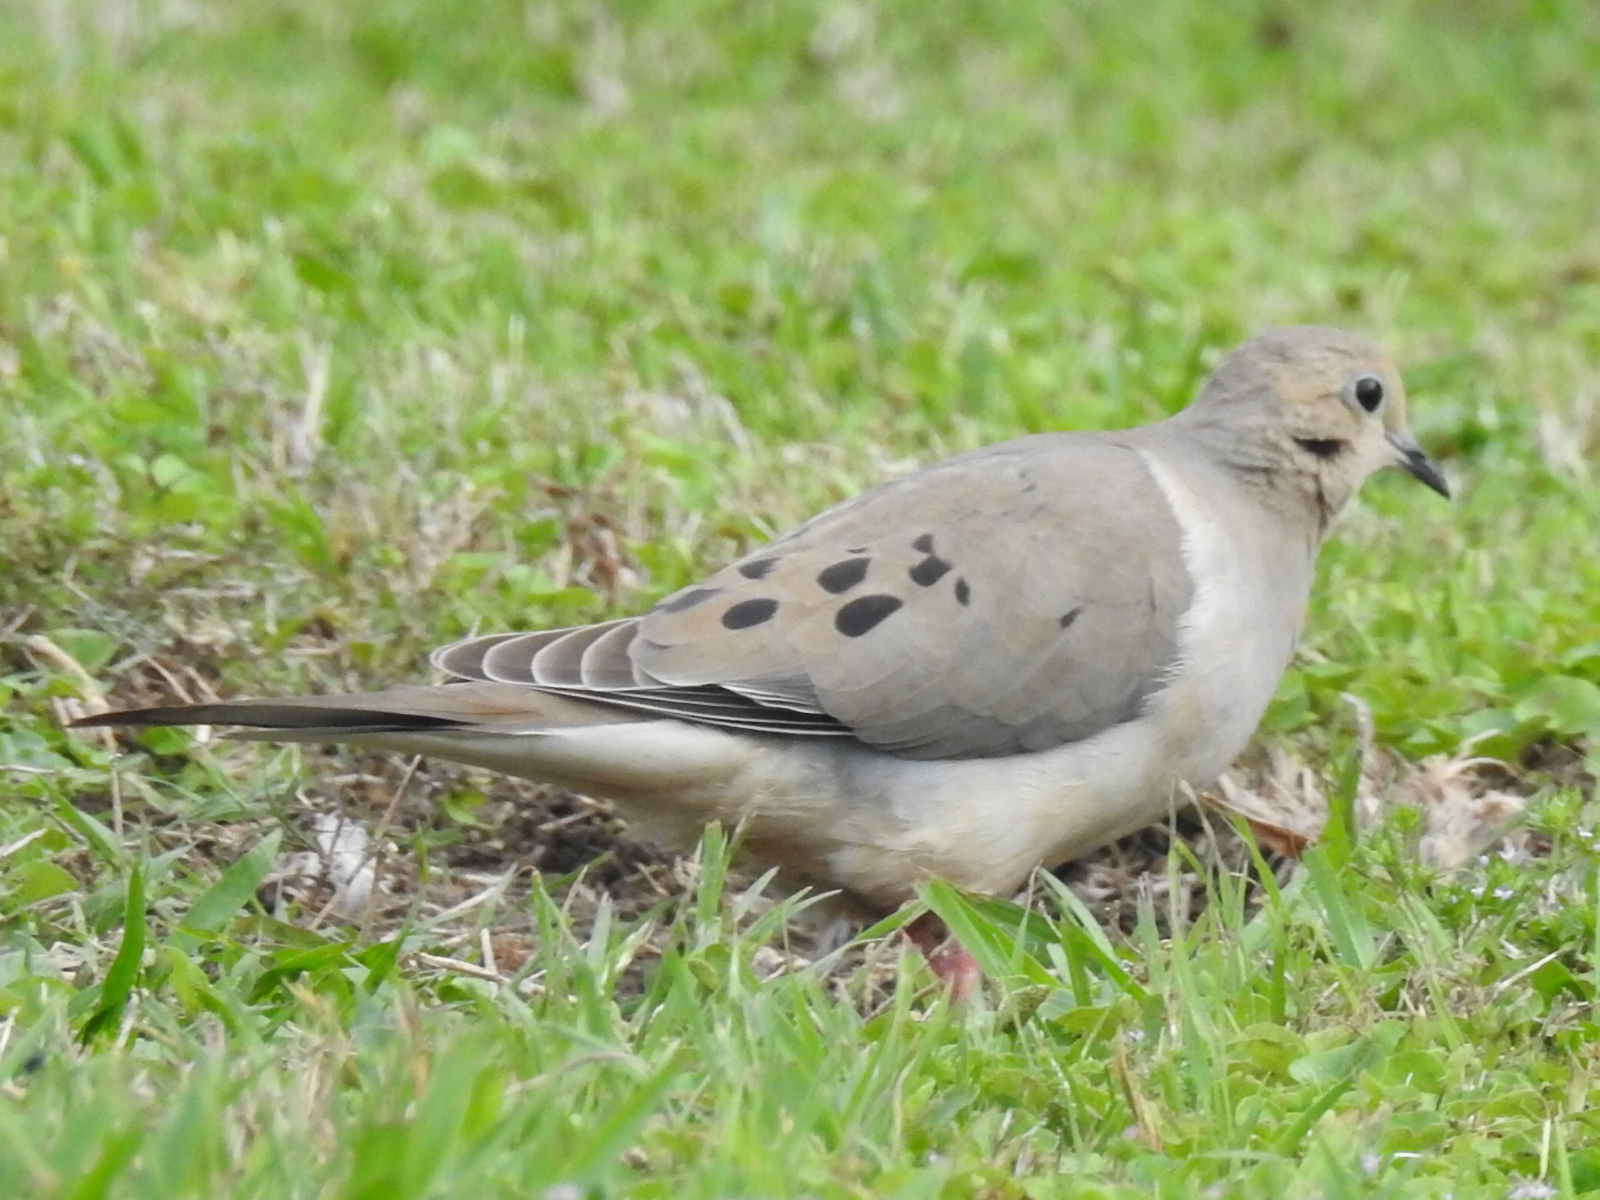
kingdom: Animalia
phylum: Chordata
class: Aves
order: Columbiformes
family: Columbidae
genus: Zenaida
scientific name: Zenaida macroura
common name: Mourning dove
